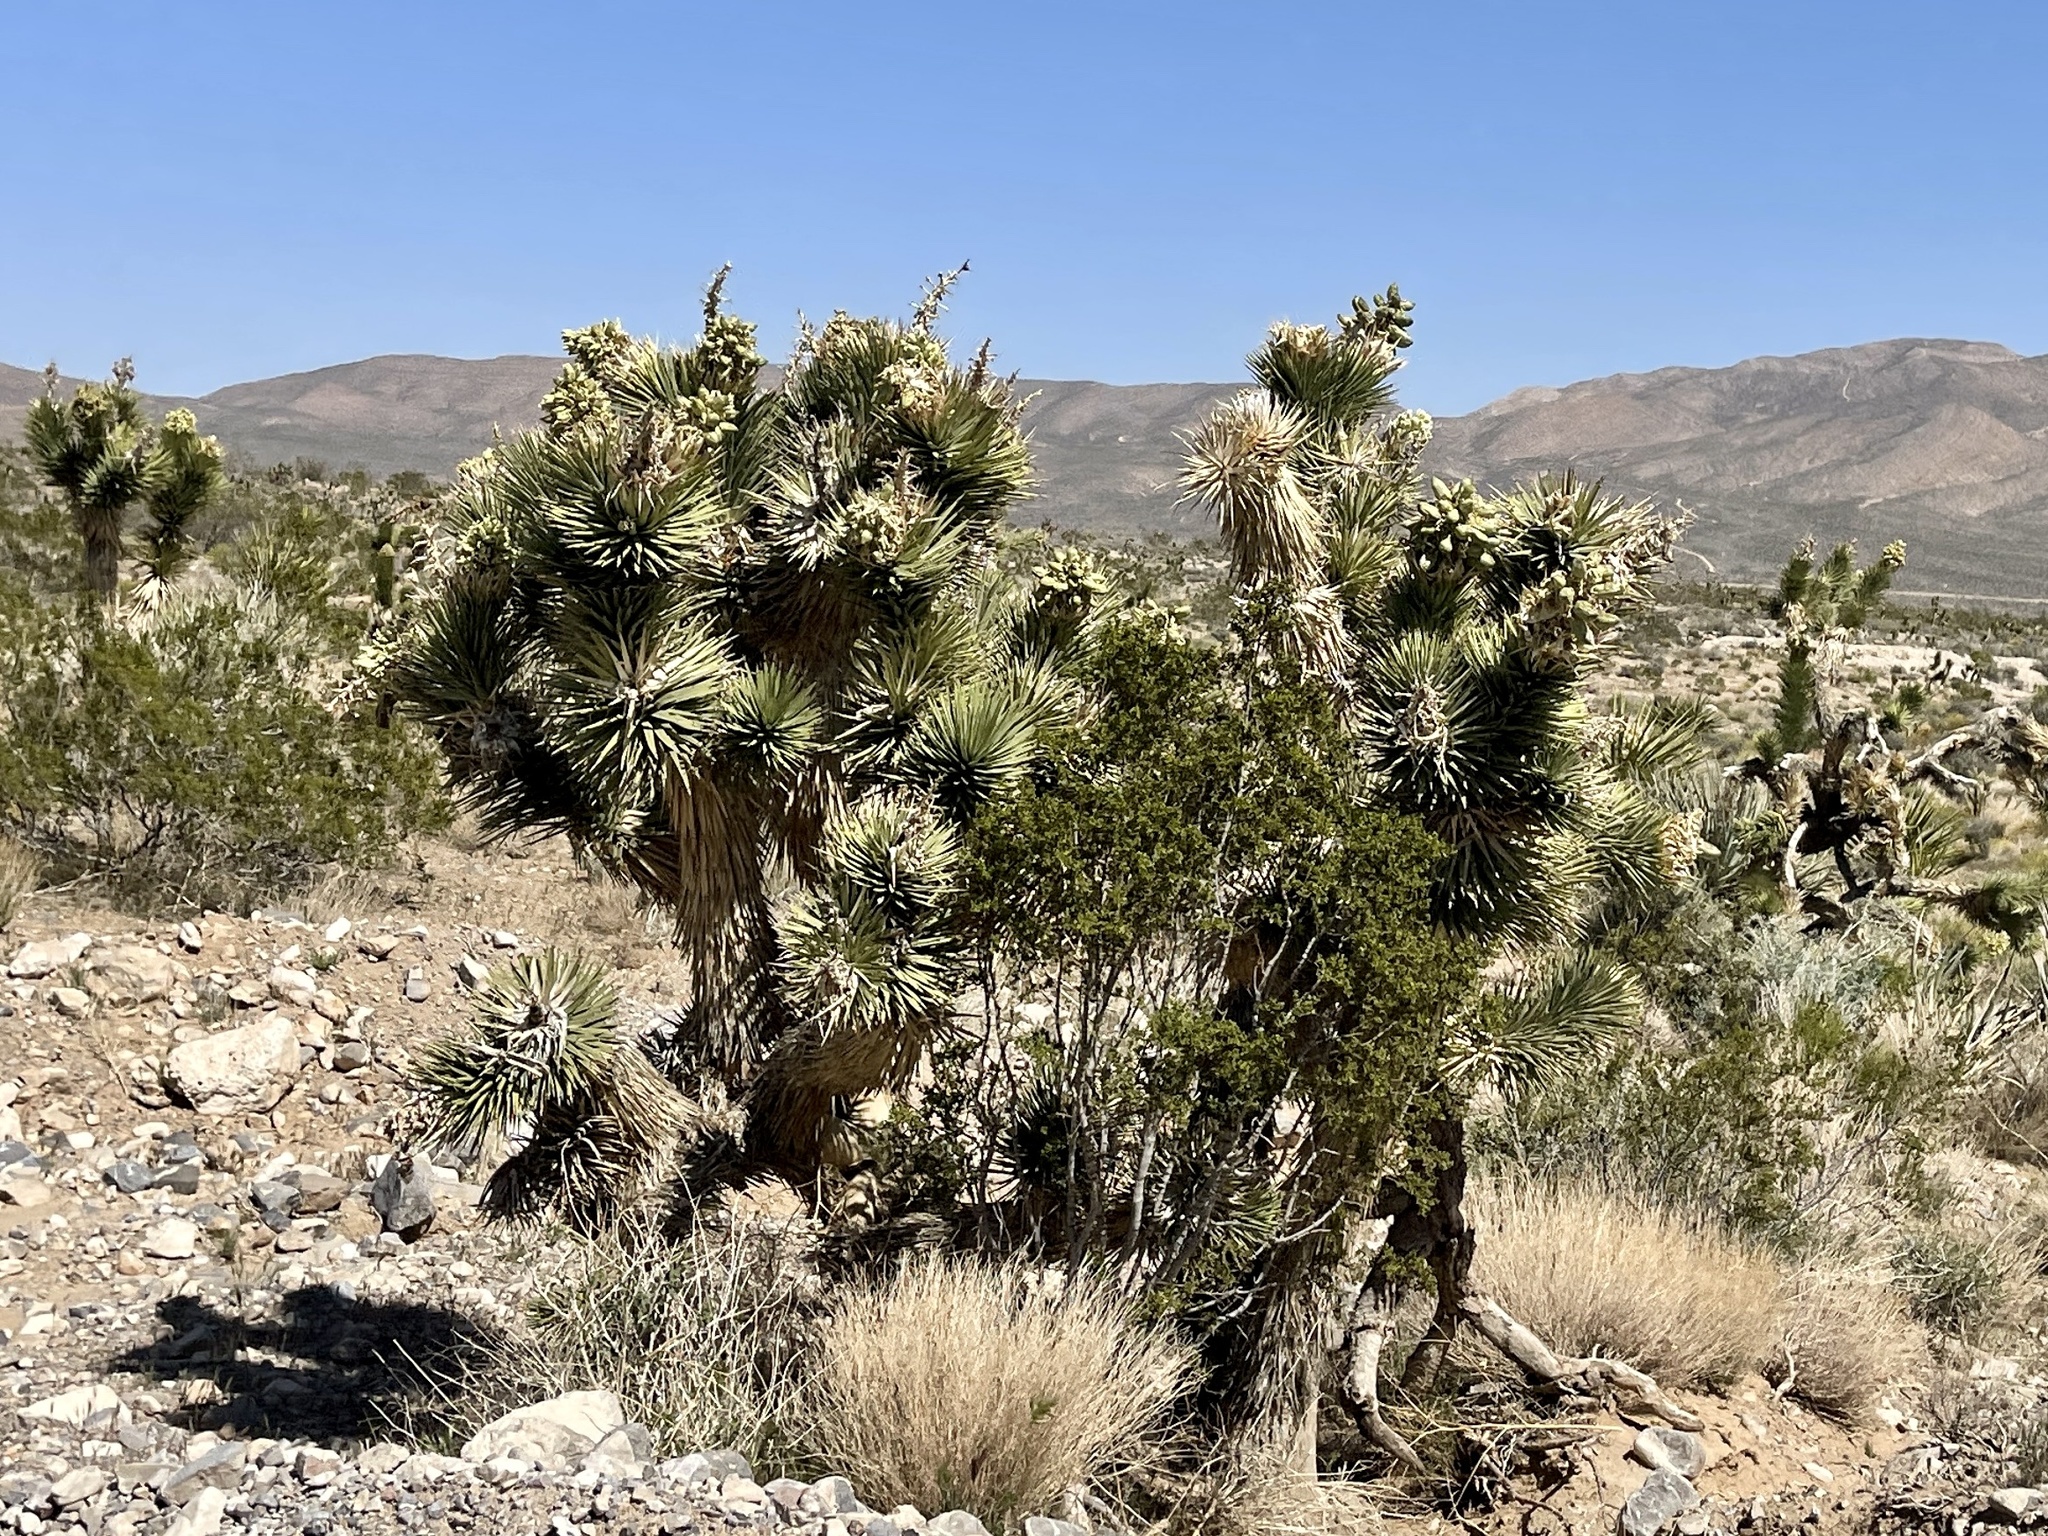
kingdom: Plantae
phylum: Tracheophyta
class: Liliopsida
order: Asparagales
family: Asparagaceae
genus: Yucca
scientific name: Yucca brevifolia
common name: Joshua tree
